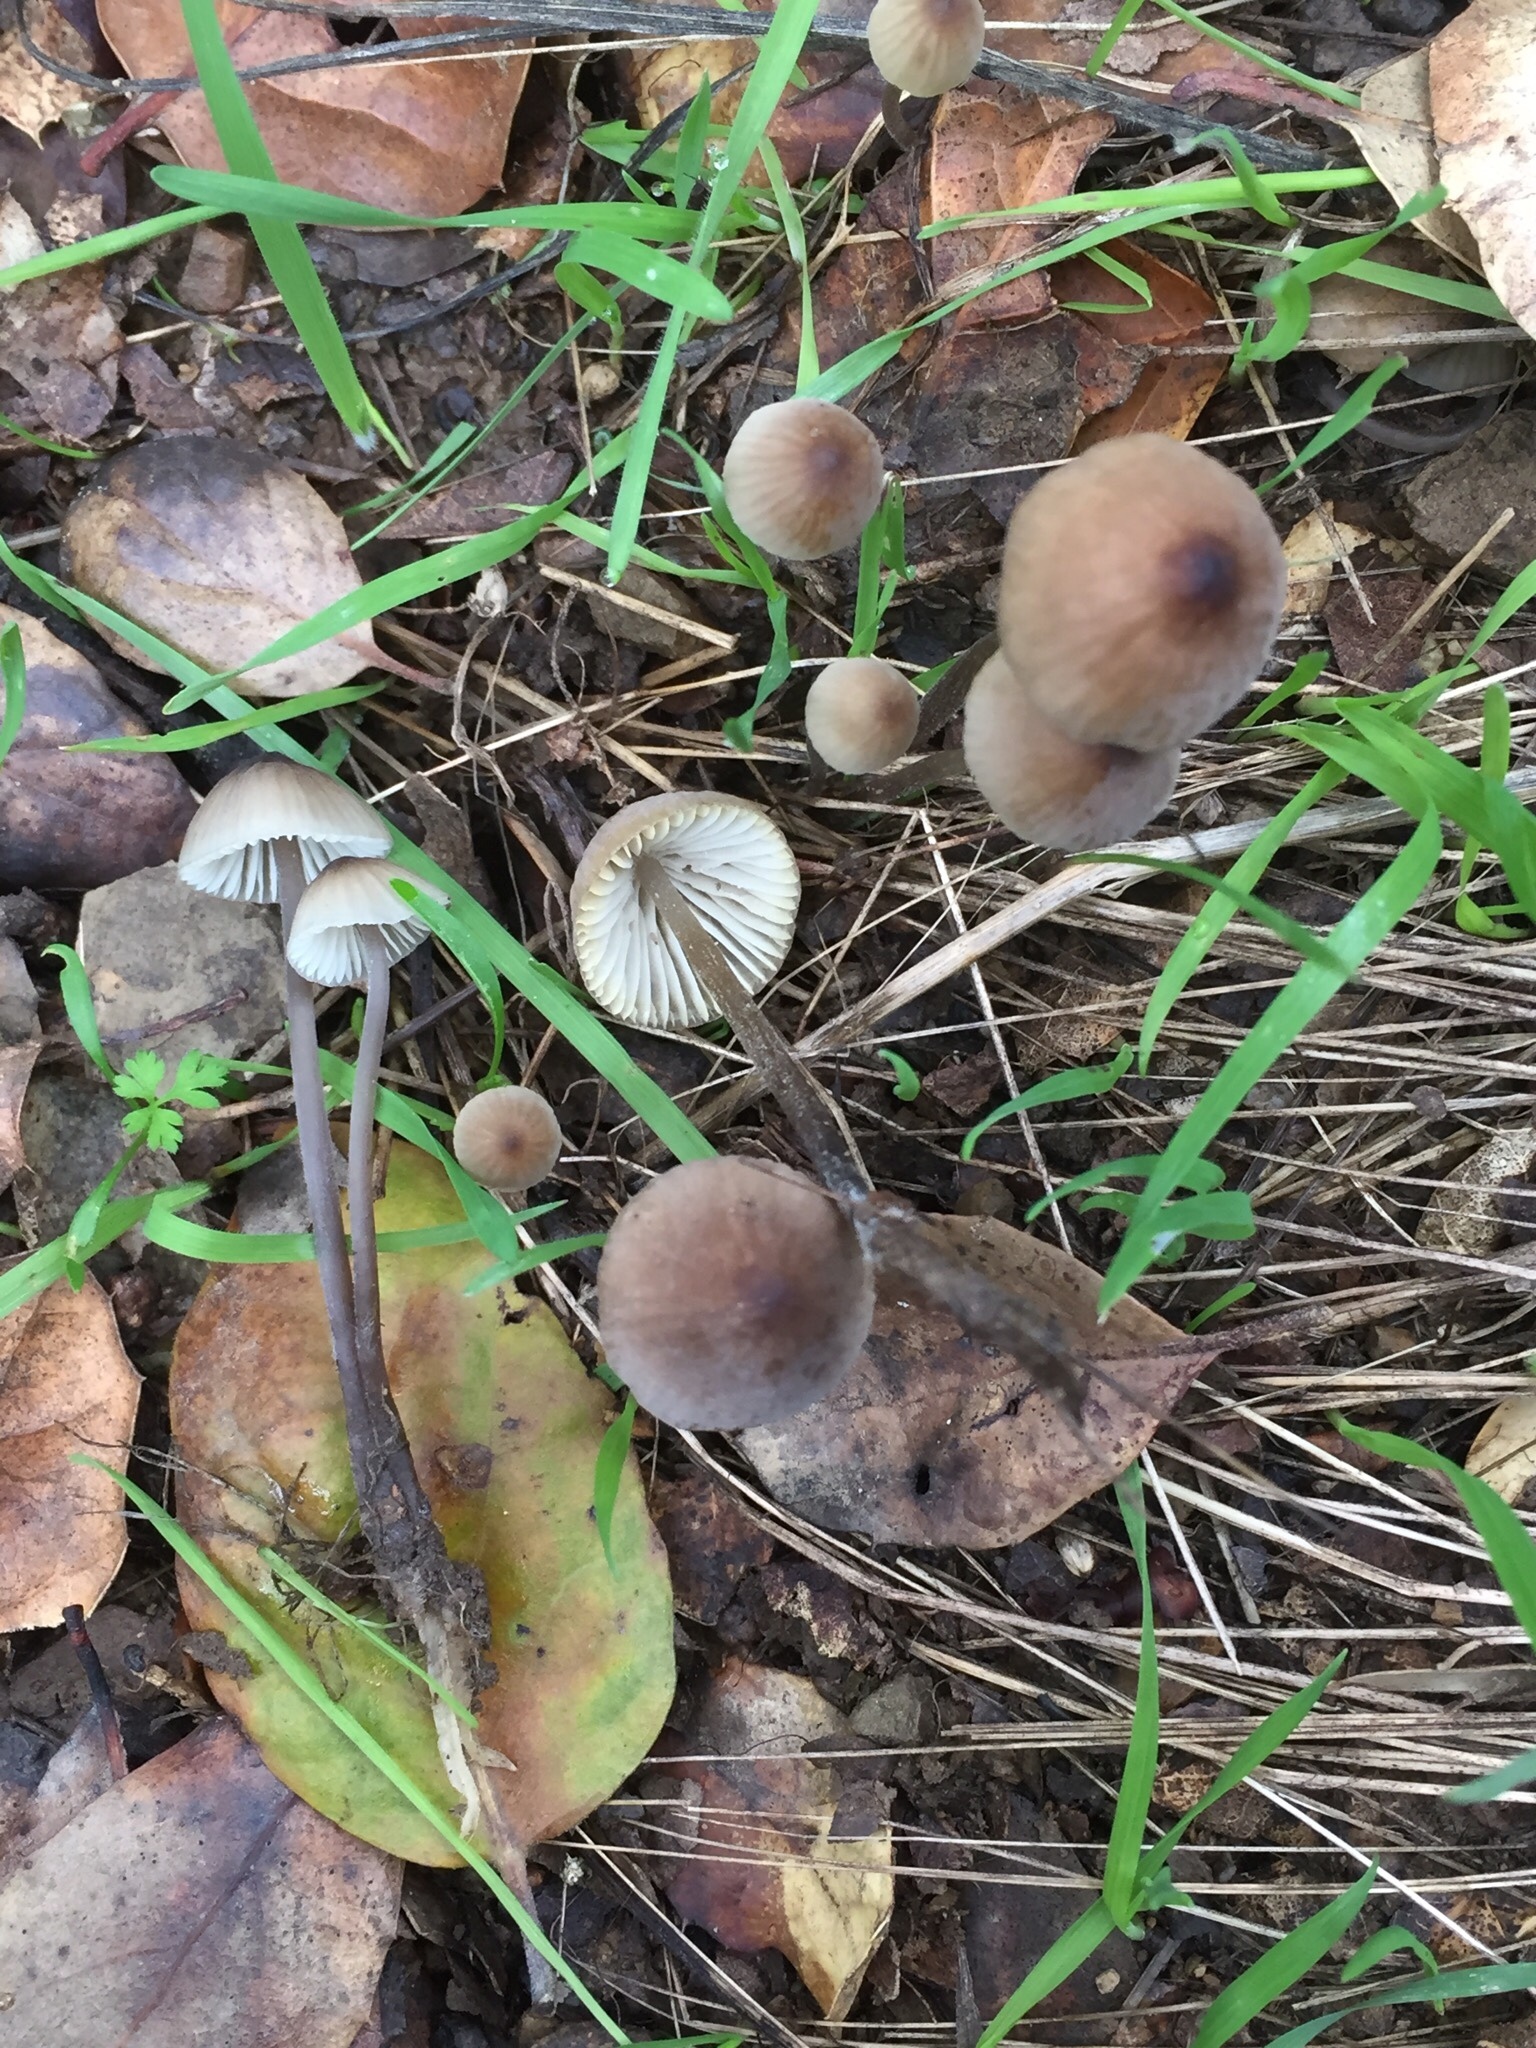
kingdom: Fungi
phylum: Basidiomycota
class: Agaricomycetes
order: Agaricales
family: Mycenaceae
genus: Mycena
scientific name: Mycena leptocephala
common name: Nitrous bonnet
